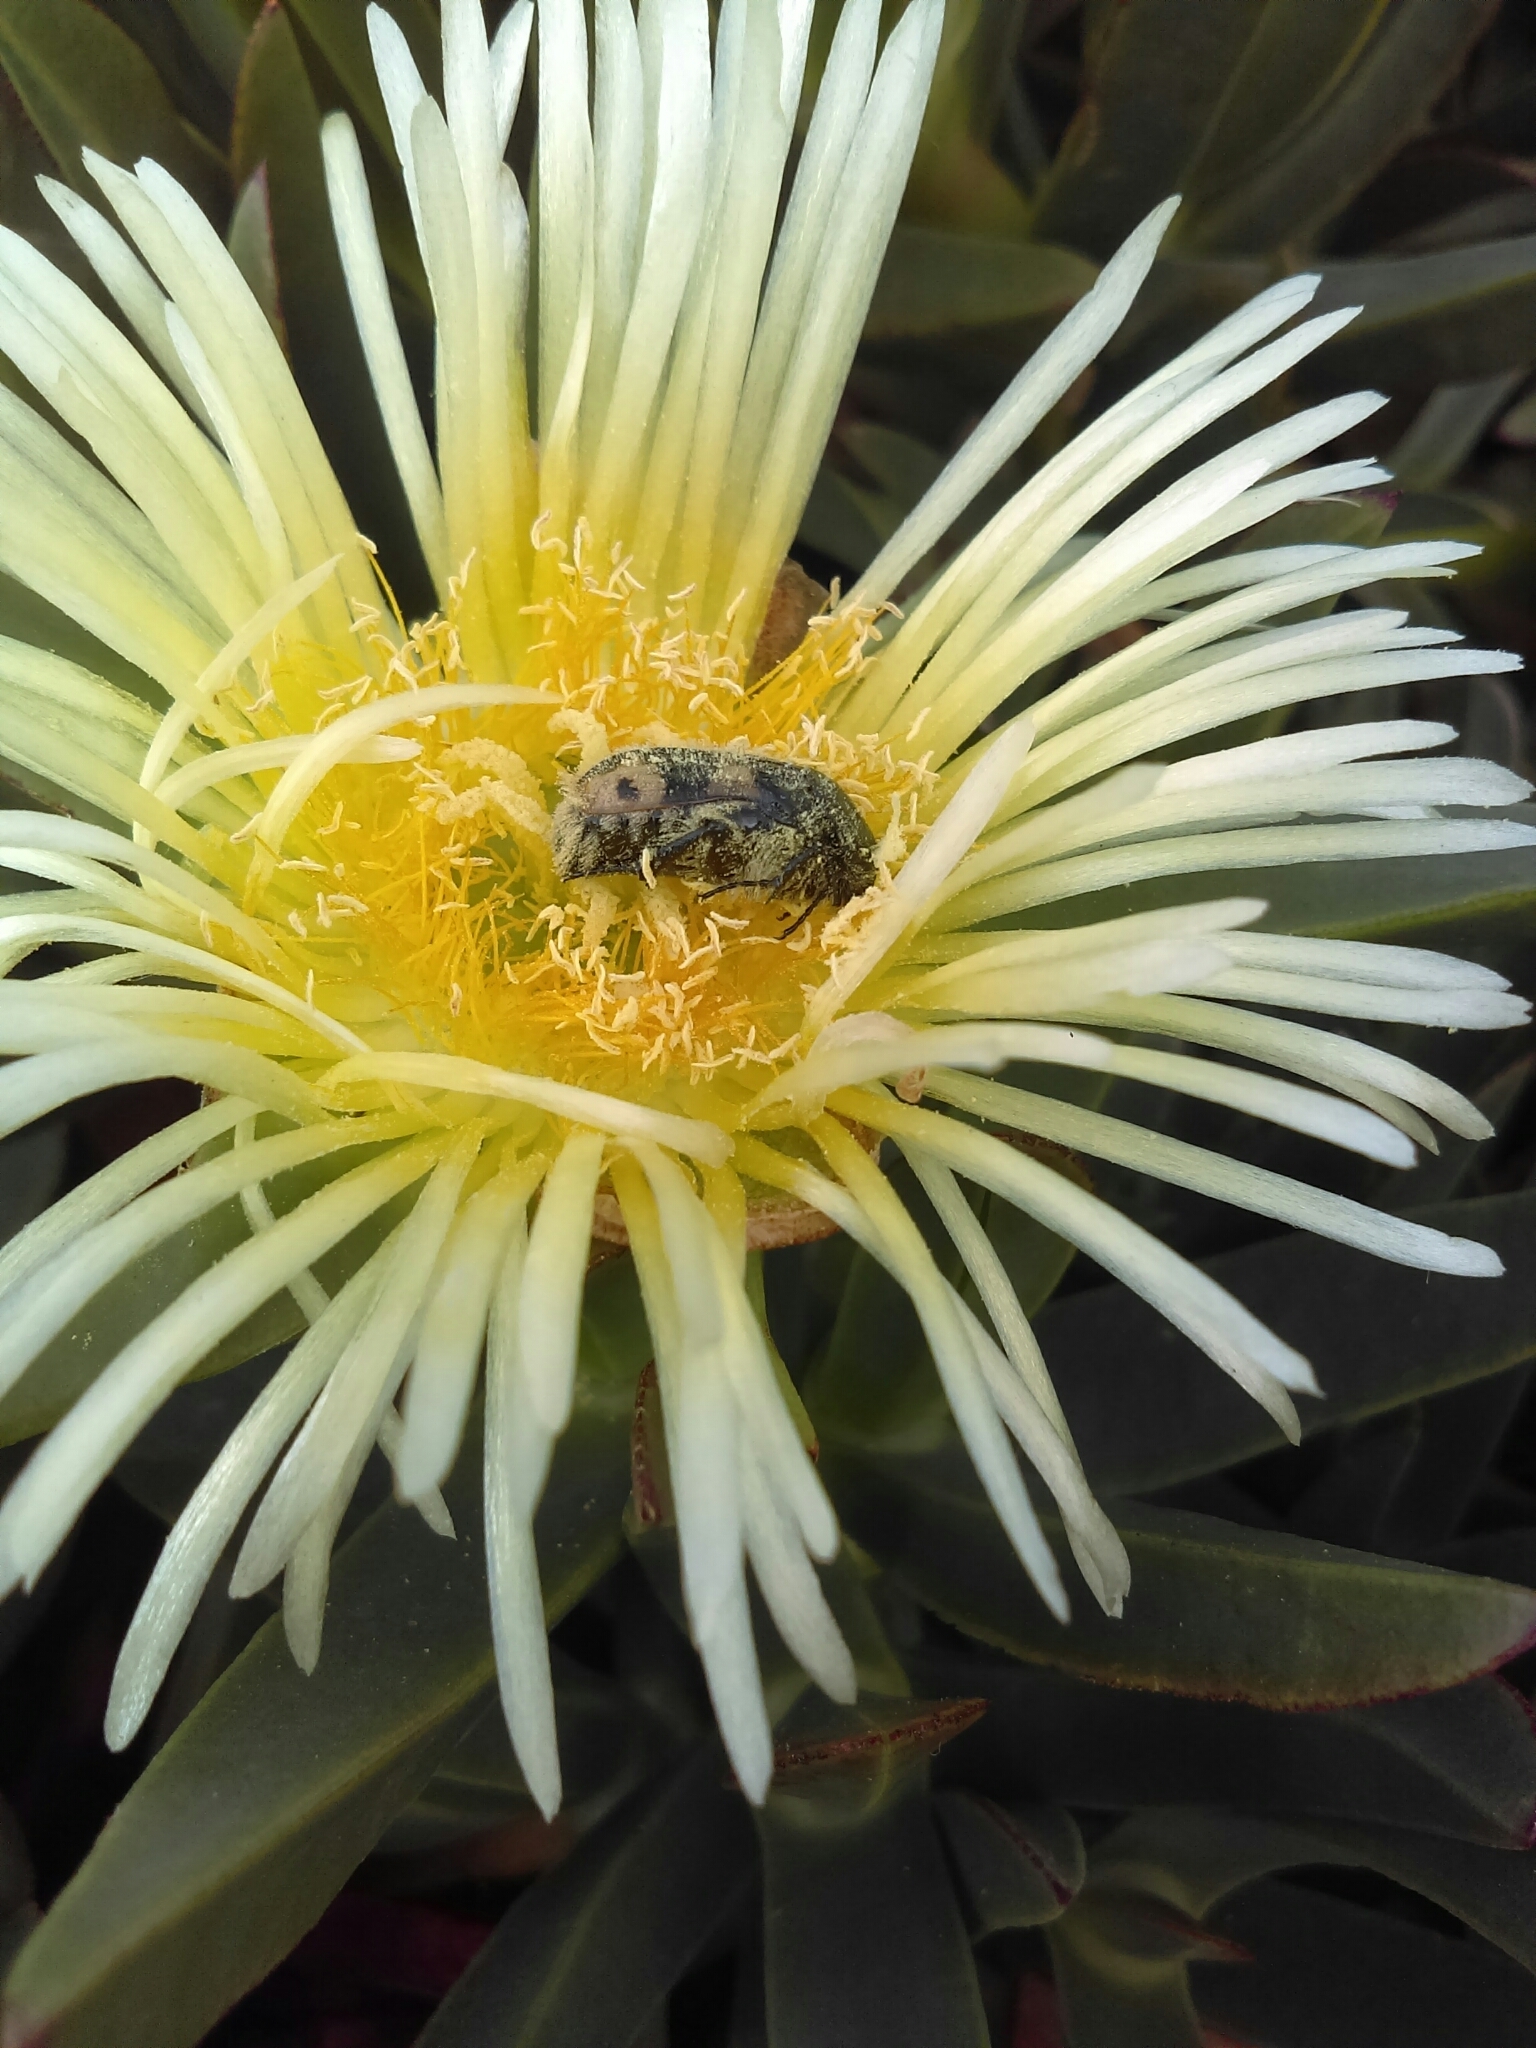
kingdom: Animalia
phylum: Arthropoda
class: Insecta
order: Coleoptera
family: Scarabaeidae
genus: Euphoria
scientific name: Euphoria basalis
